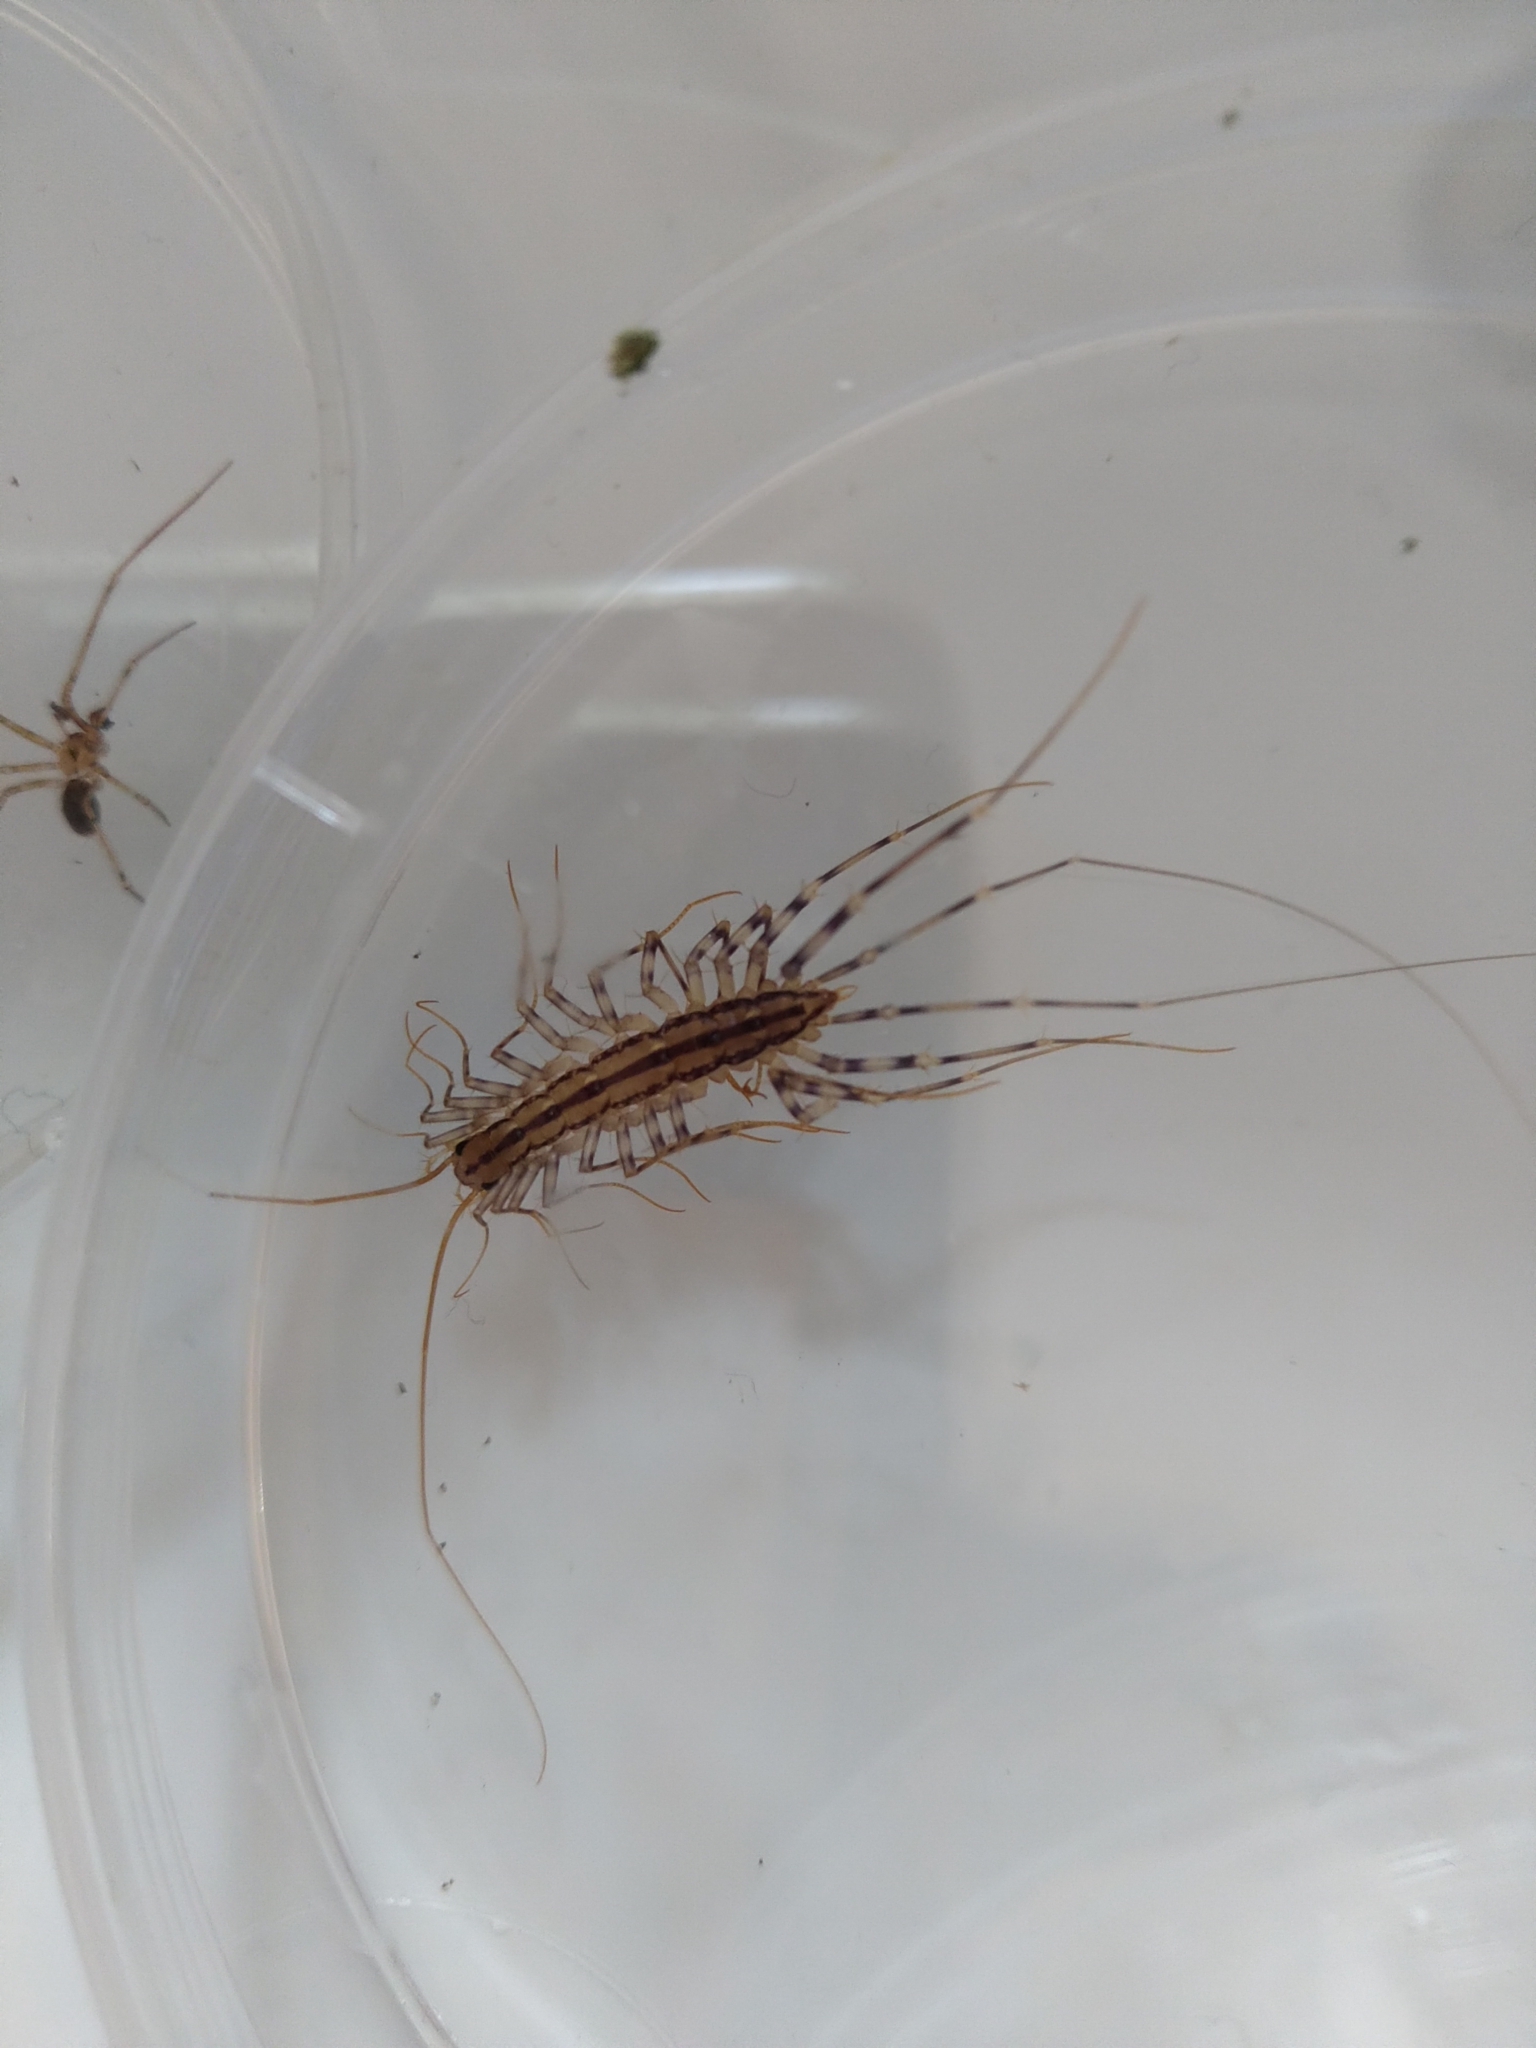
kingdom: Animalia
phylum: Arthropoda
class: Chilopoda
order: Scutigeromorpha
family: Scutigeridae
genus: Scutigera
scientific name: Scutigera coleoptrata
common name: House centipede
